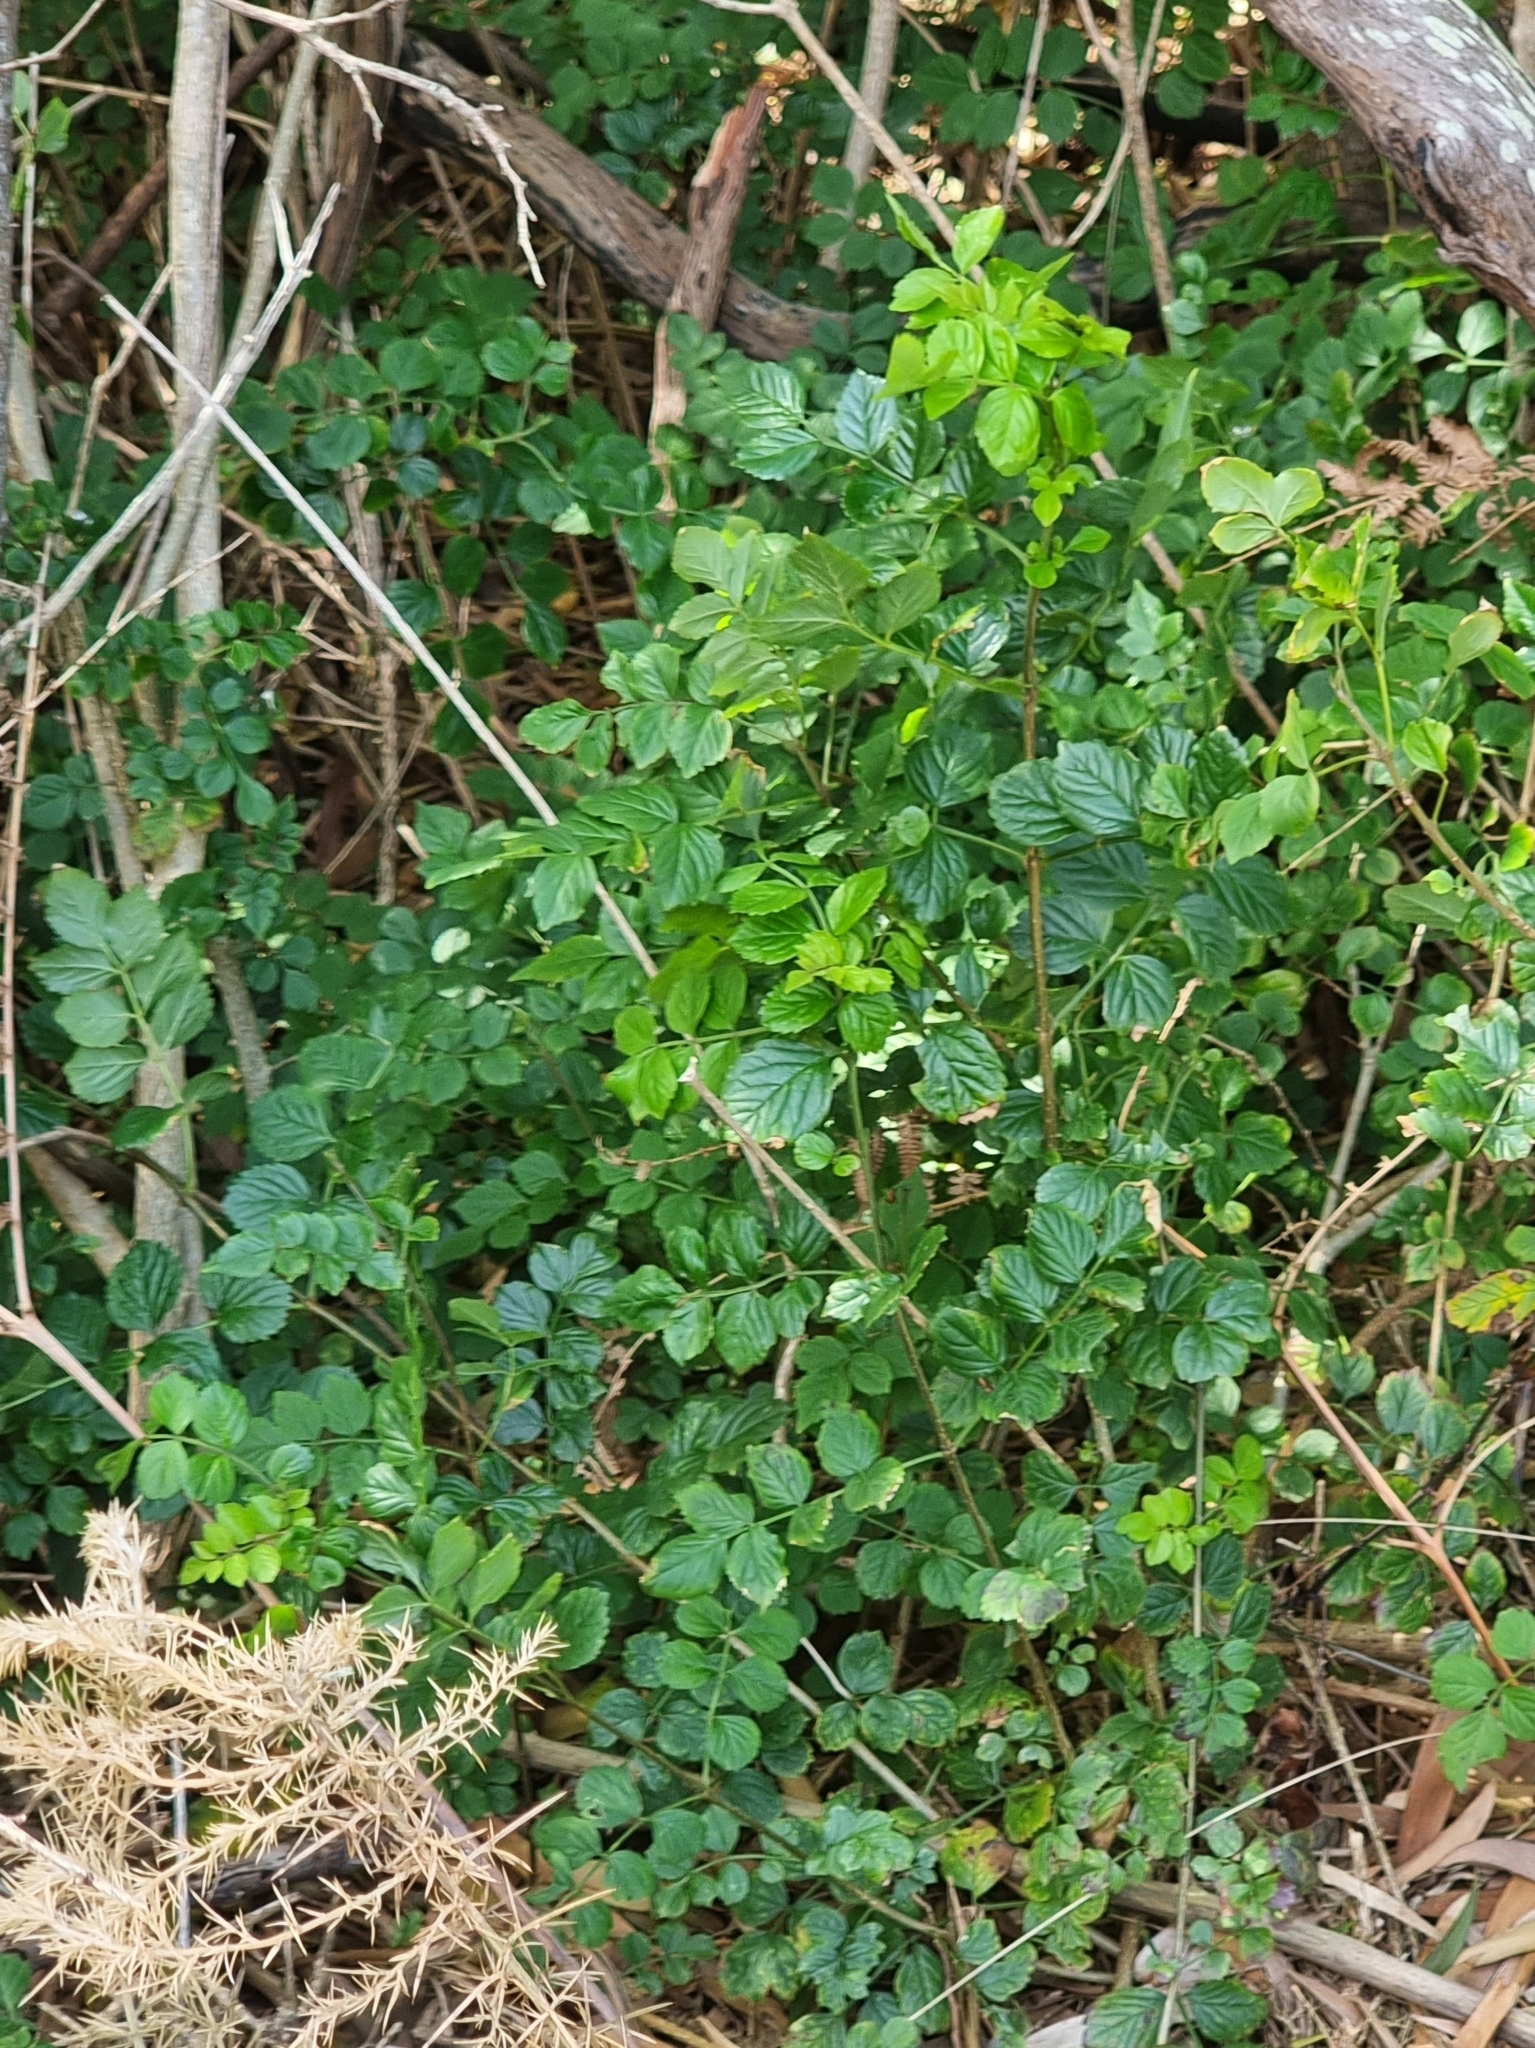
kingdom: Plantae
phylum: Tracheophyta
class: Magnoliopsida
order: Lamiales
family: Bignoniaceae
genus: Tecomaria
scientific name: Tecomaria capensis
